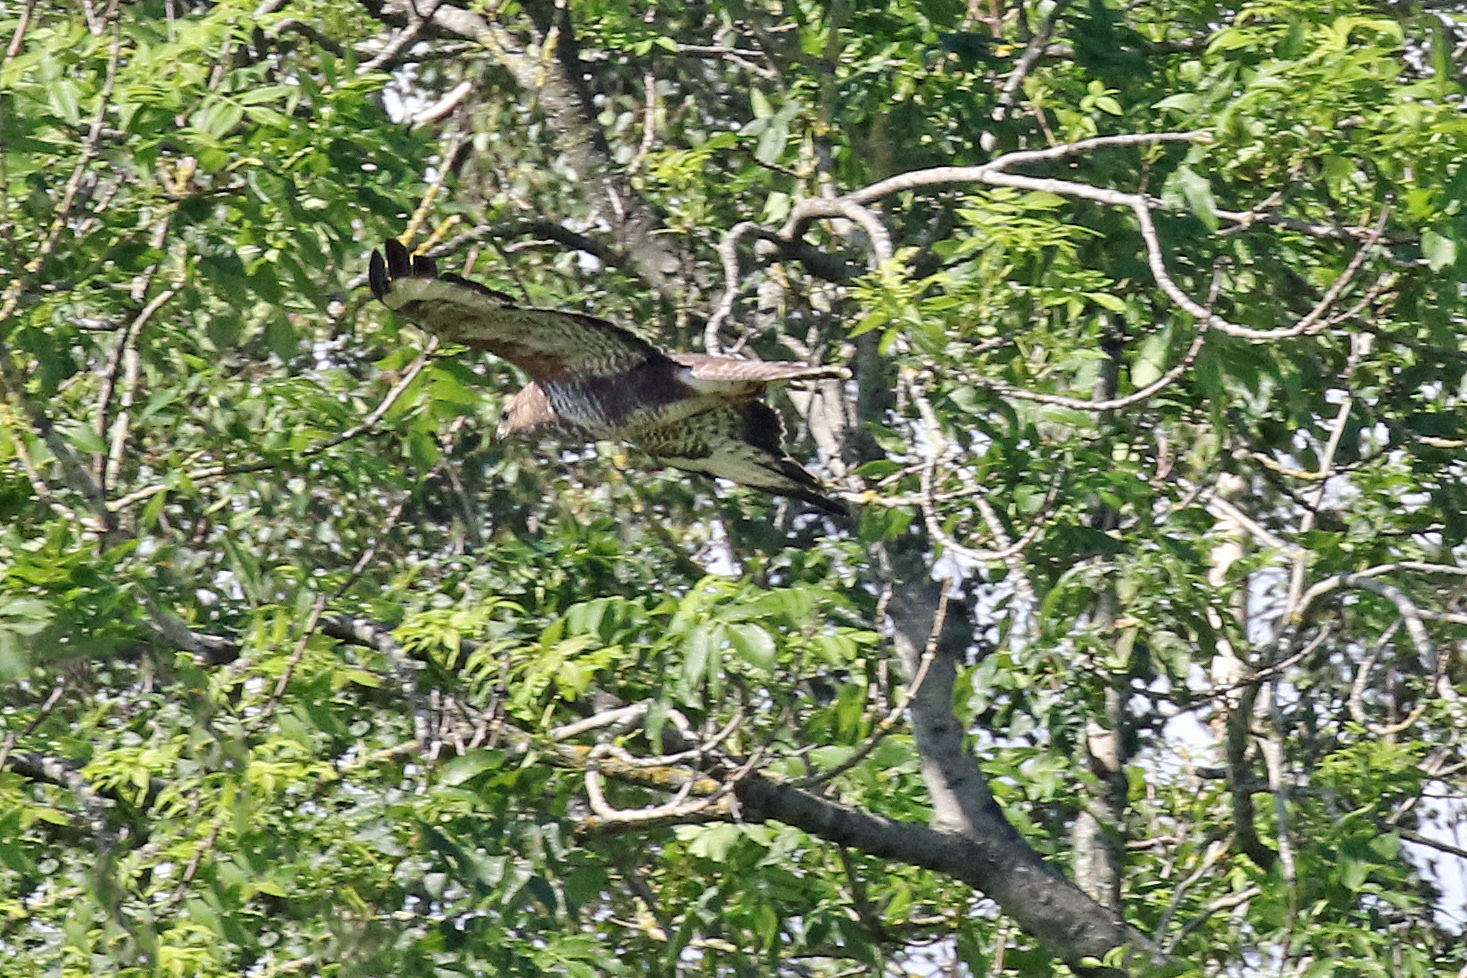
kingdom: Animalia
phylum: Chordata
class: Aves
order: Accipitriformes
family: Accipitridae
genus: Buteo
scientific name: Buteo buteo
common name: Common buzzard
